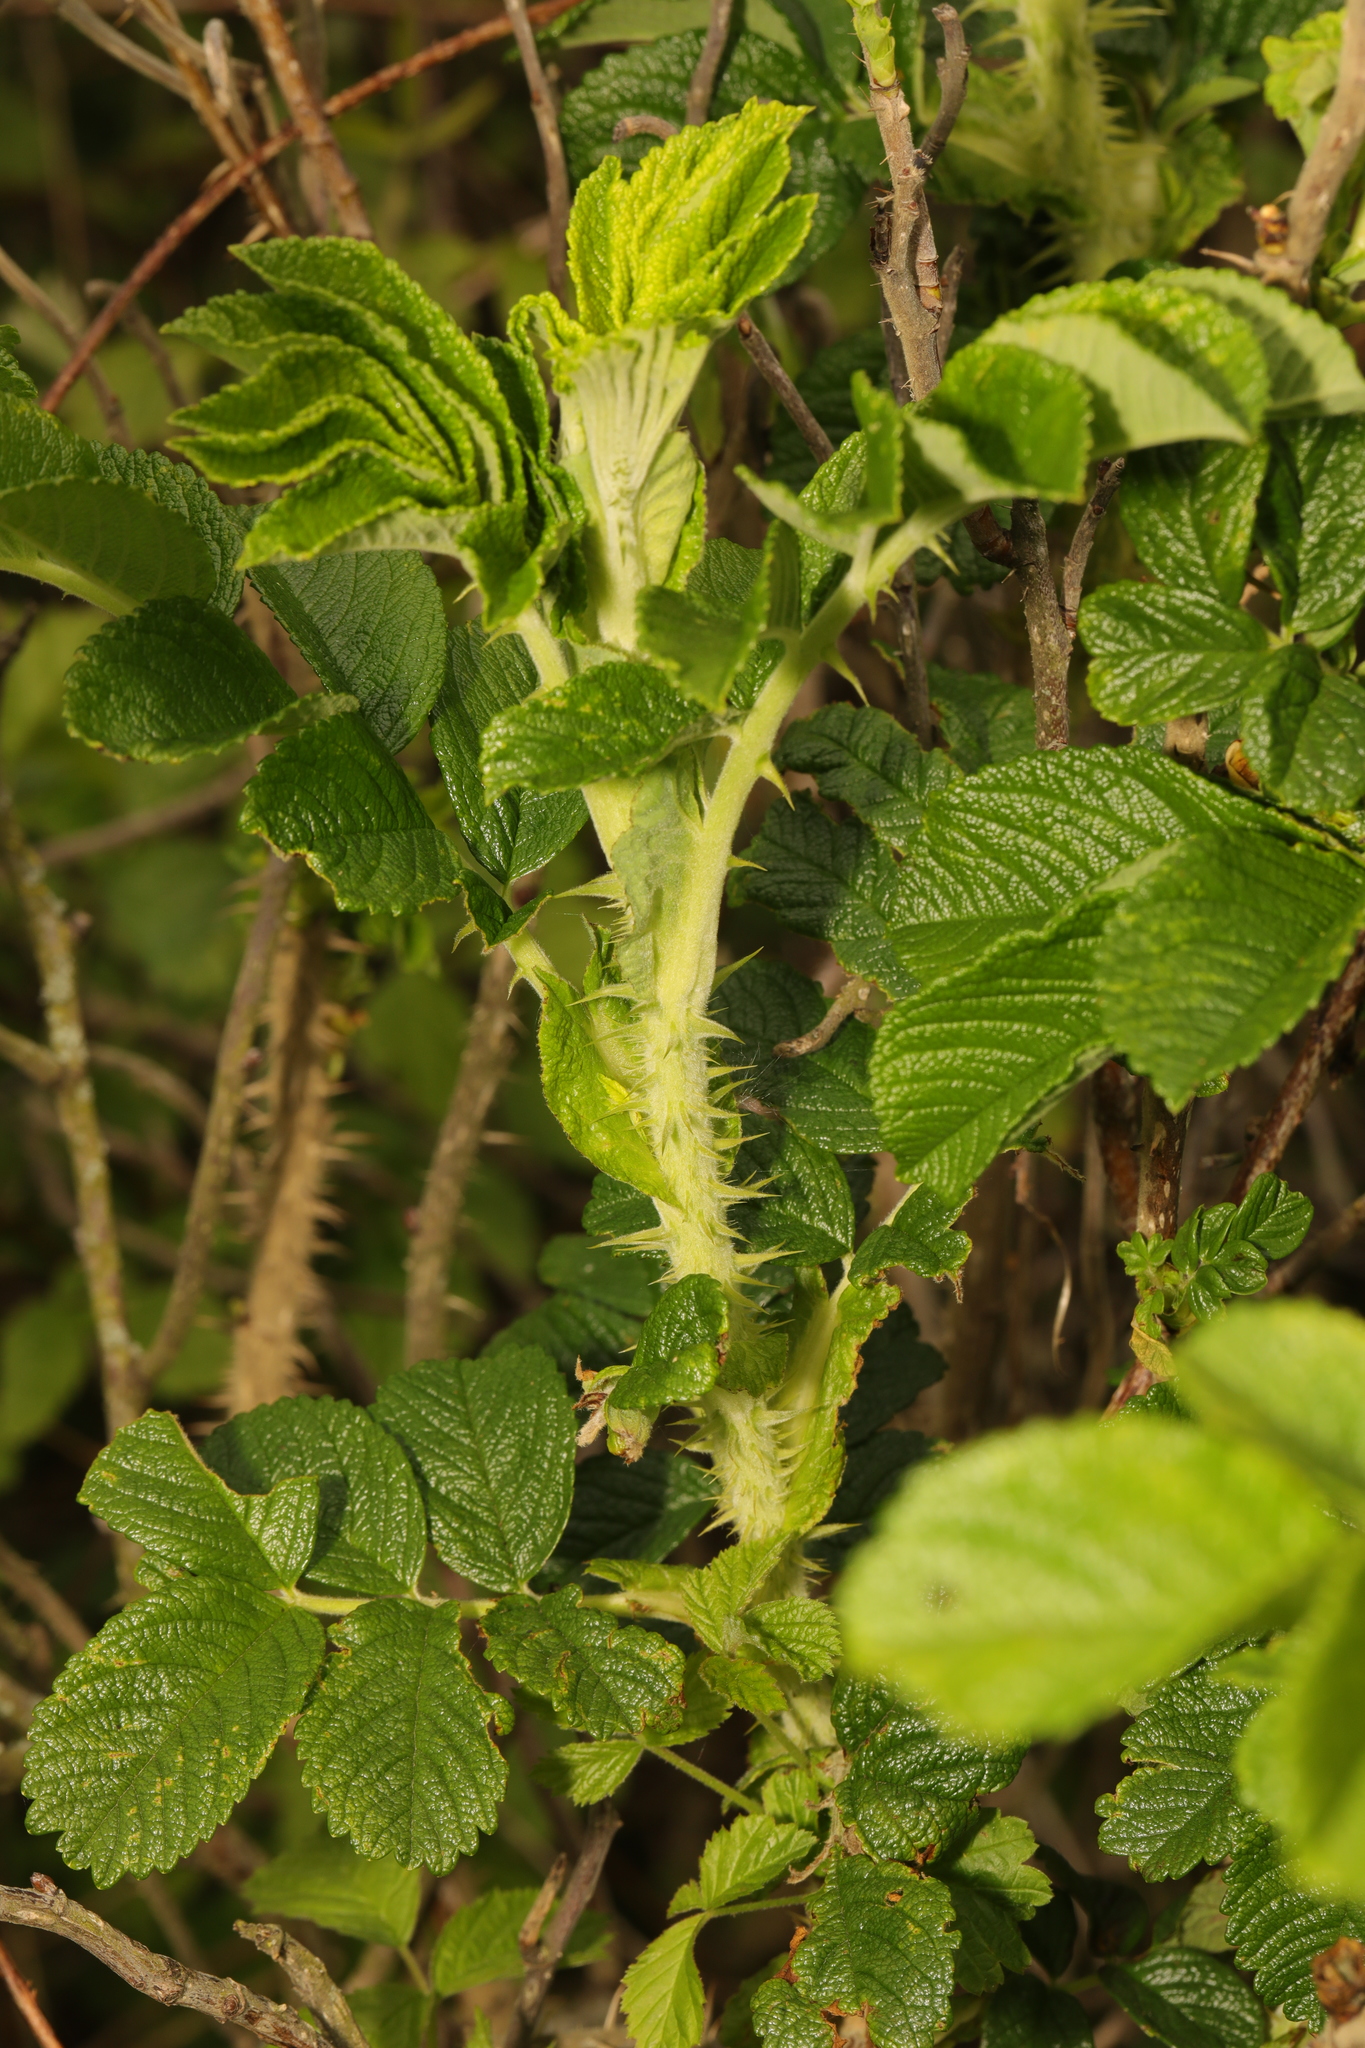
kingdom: Plantae
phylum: Tracheophyta
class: Magnoliopsida
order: Rosales
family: Rosaceae
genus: Rosa
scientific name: Rosa rugosa
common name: Japanese rose
